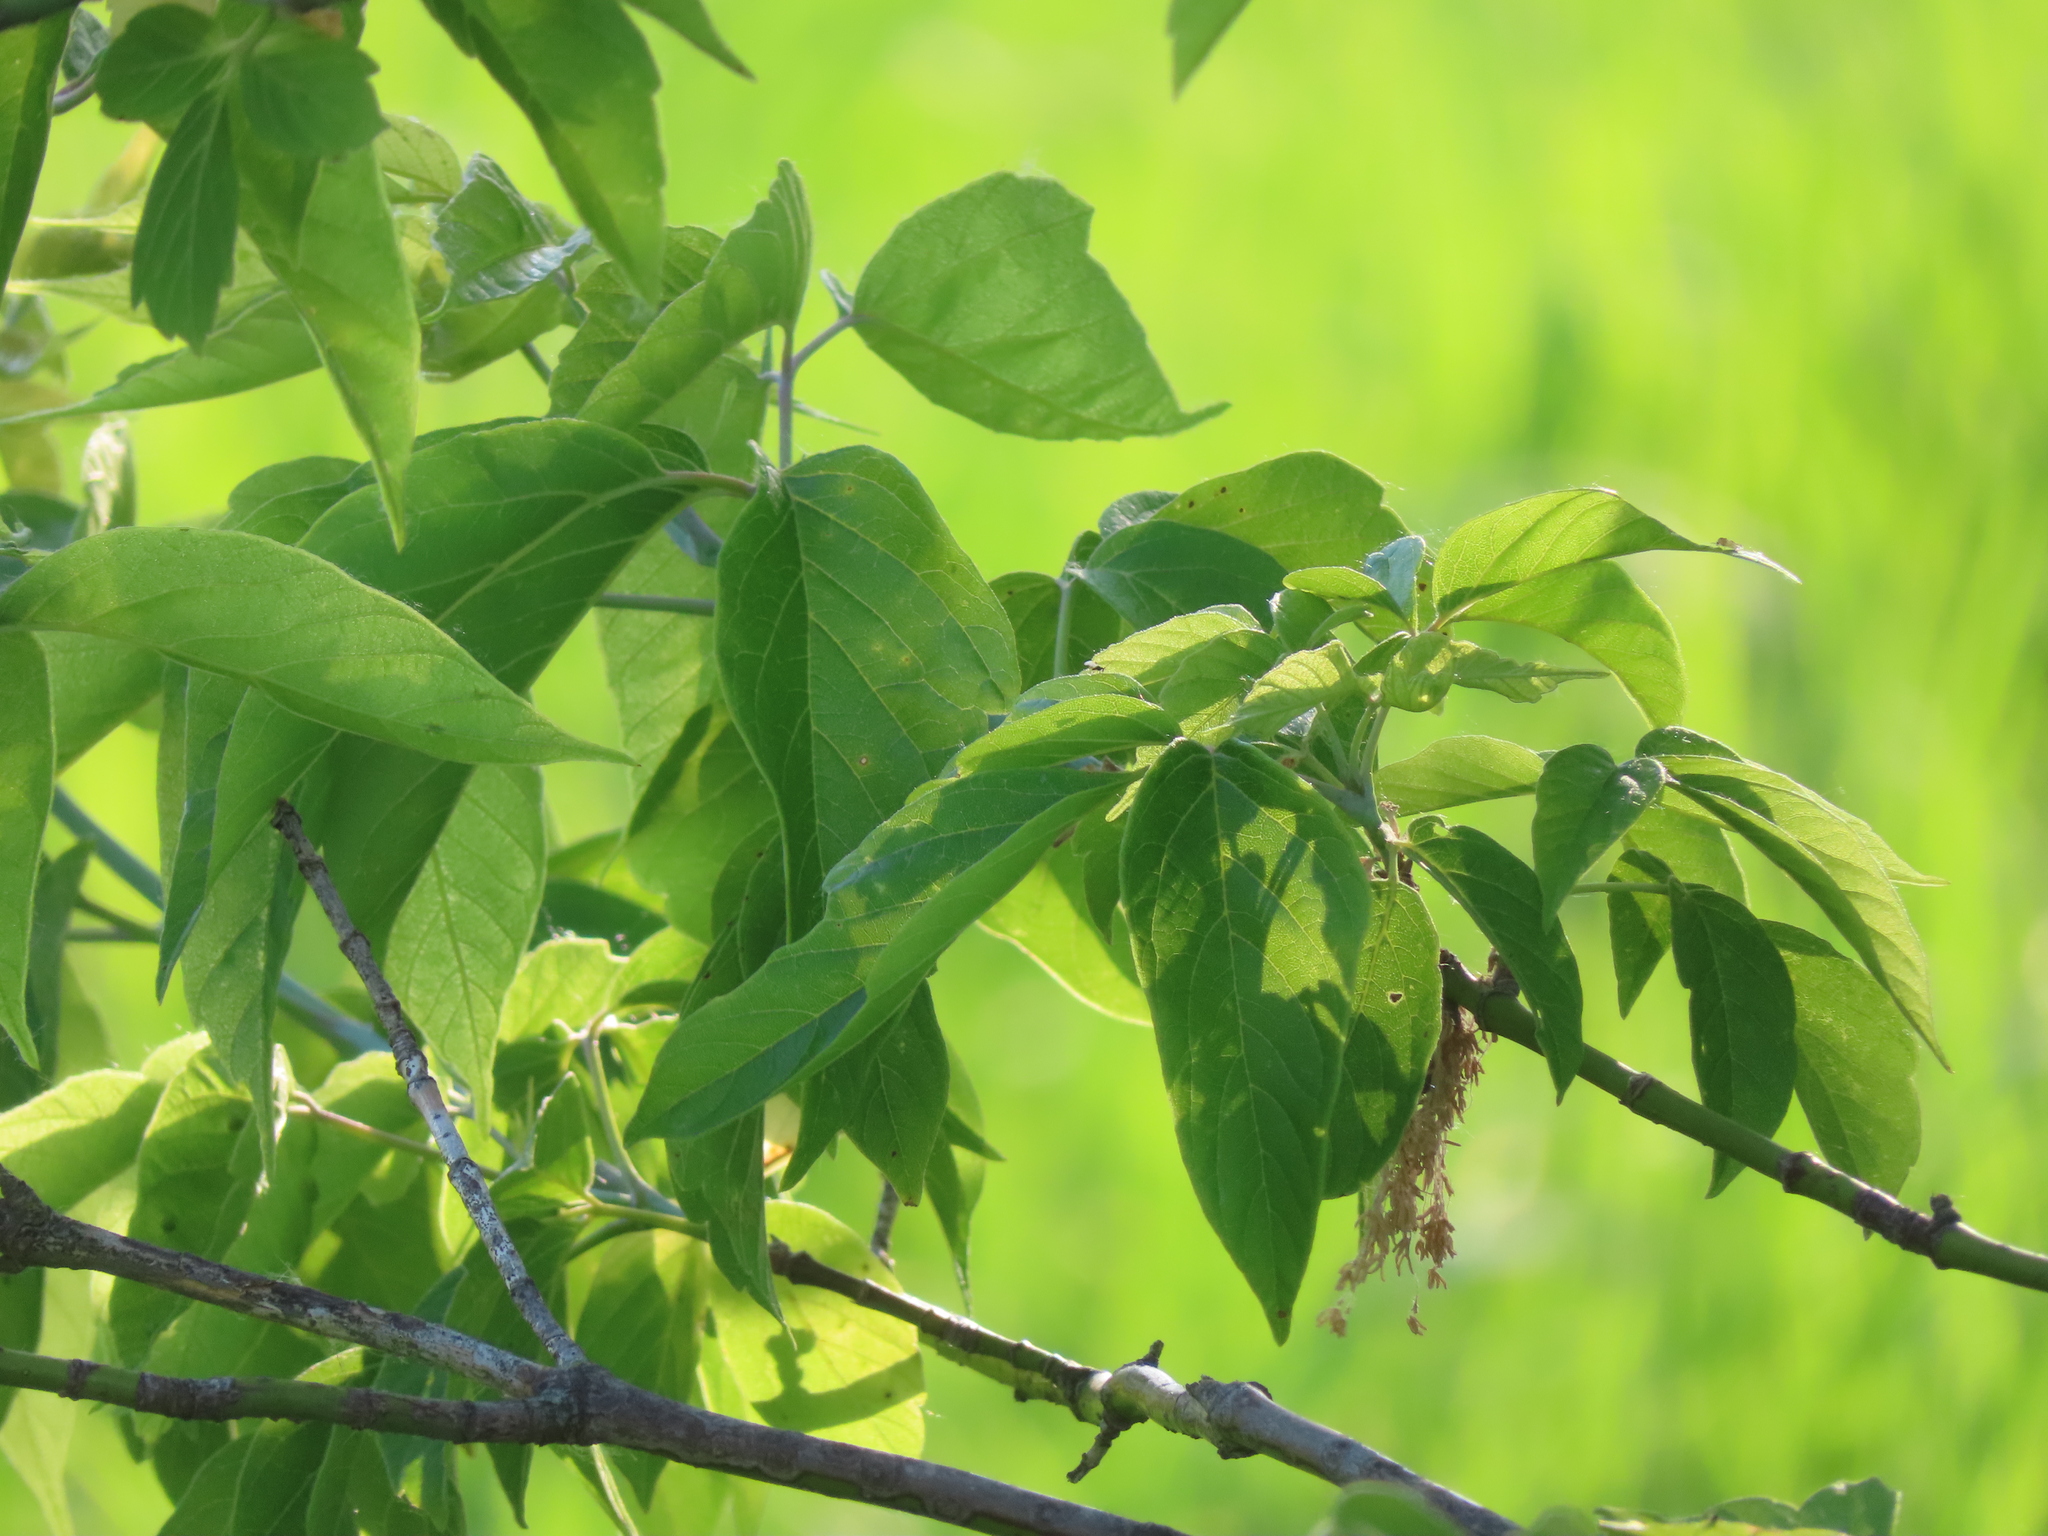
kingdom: Plantae
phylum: Tracheophyta
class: Magnoliopsida
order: Sapindales
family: Sapindaceae
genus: Acer
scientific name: Acer negundo
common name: Ashleaf maple
